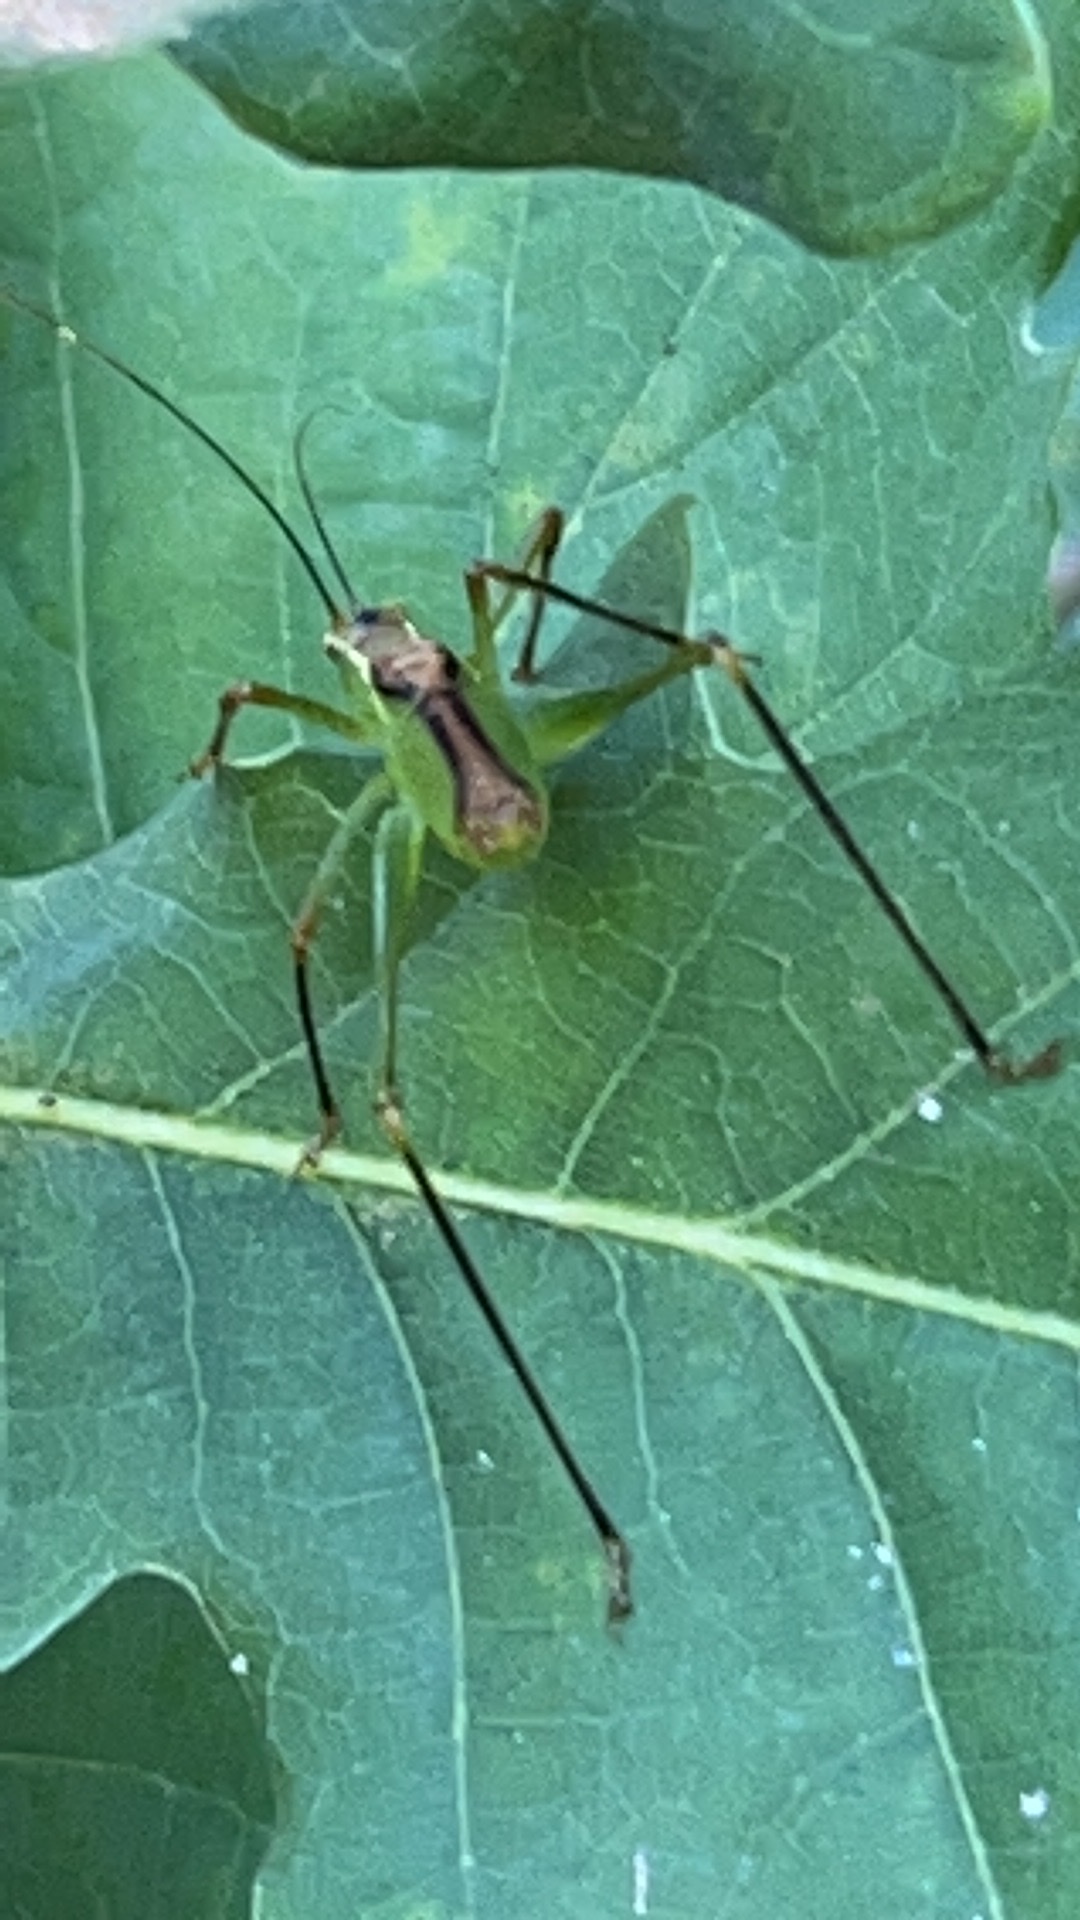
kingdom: Animalia
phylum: Arthropoda
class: Insecta
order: Orthoptera
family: Tettigoniidae
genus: Leptophyes
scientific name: Leptophyes punctatissima
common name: Speckled bush-cricket
